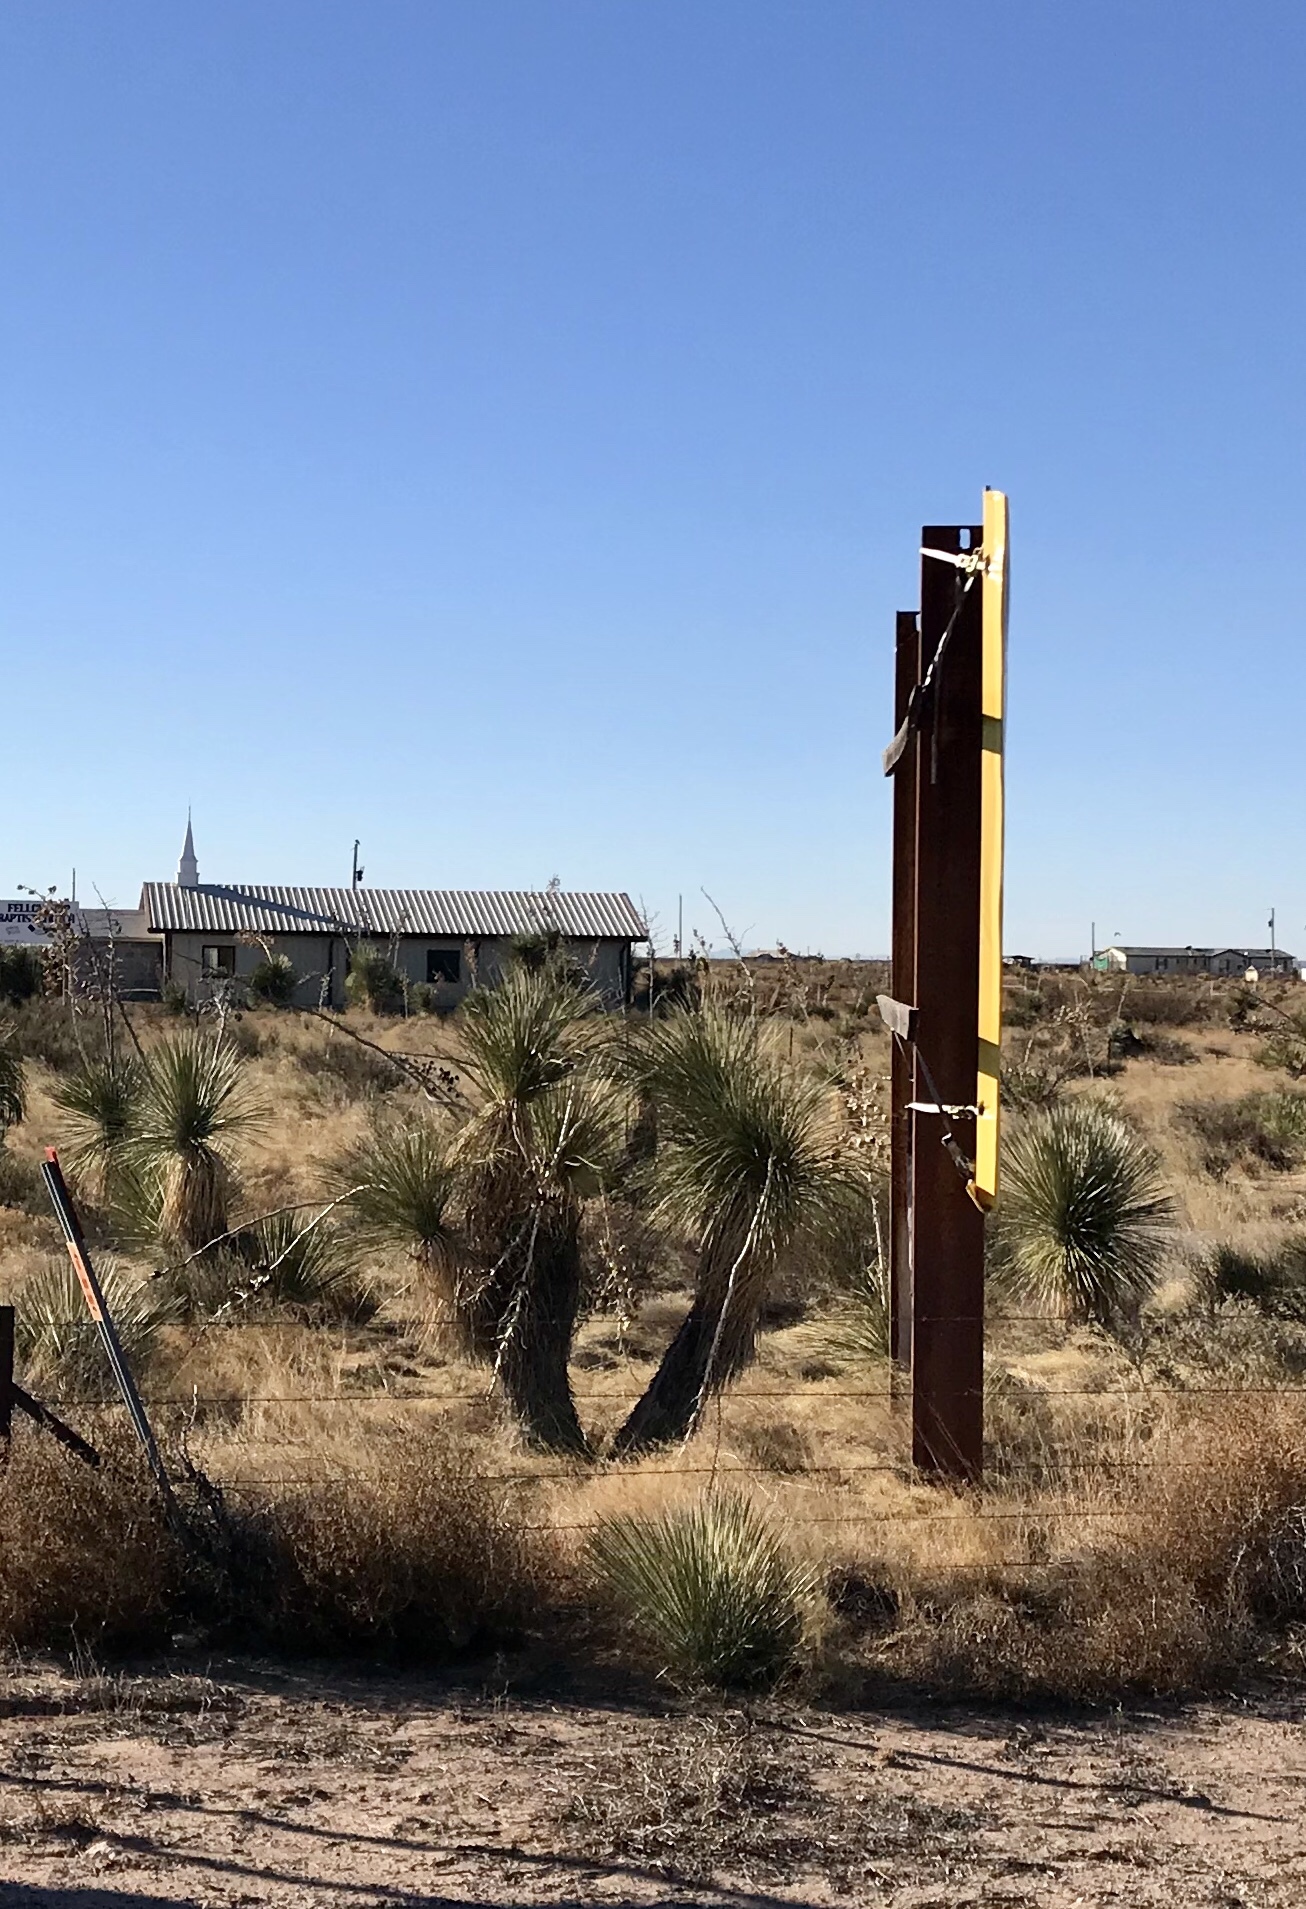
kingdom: Plantae
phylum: Tracheophyta
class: Liliopsida
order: Asparagales
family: Asparagaceae
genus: Yucca
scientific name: Yucca elata
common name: Palmella
